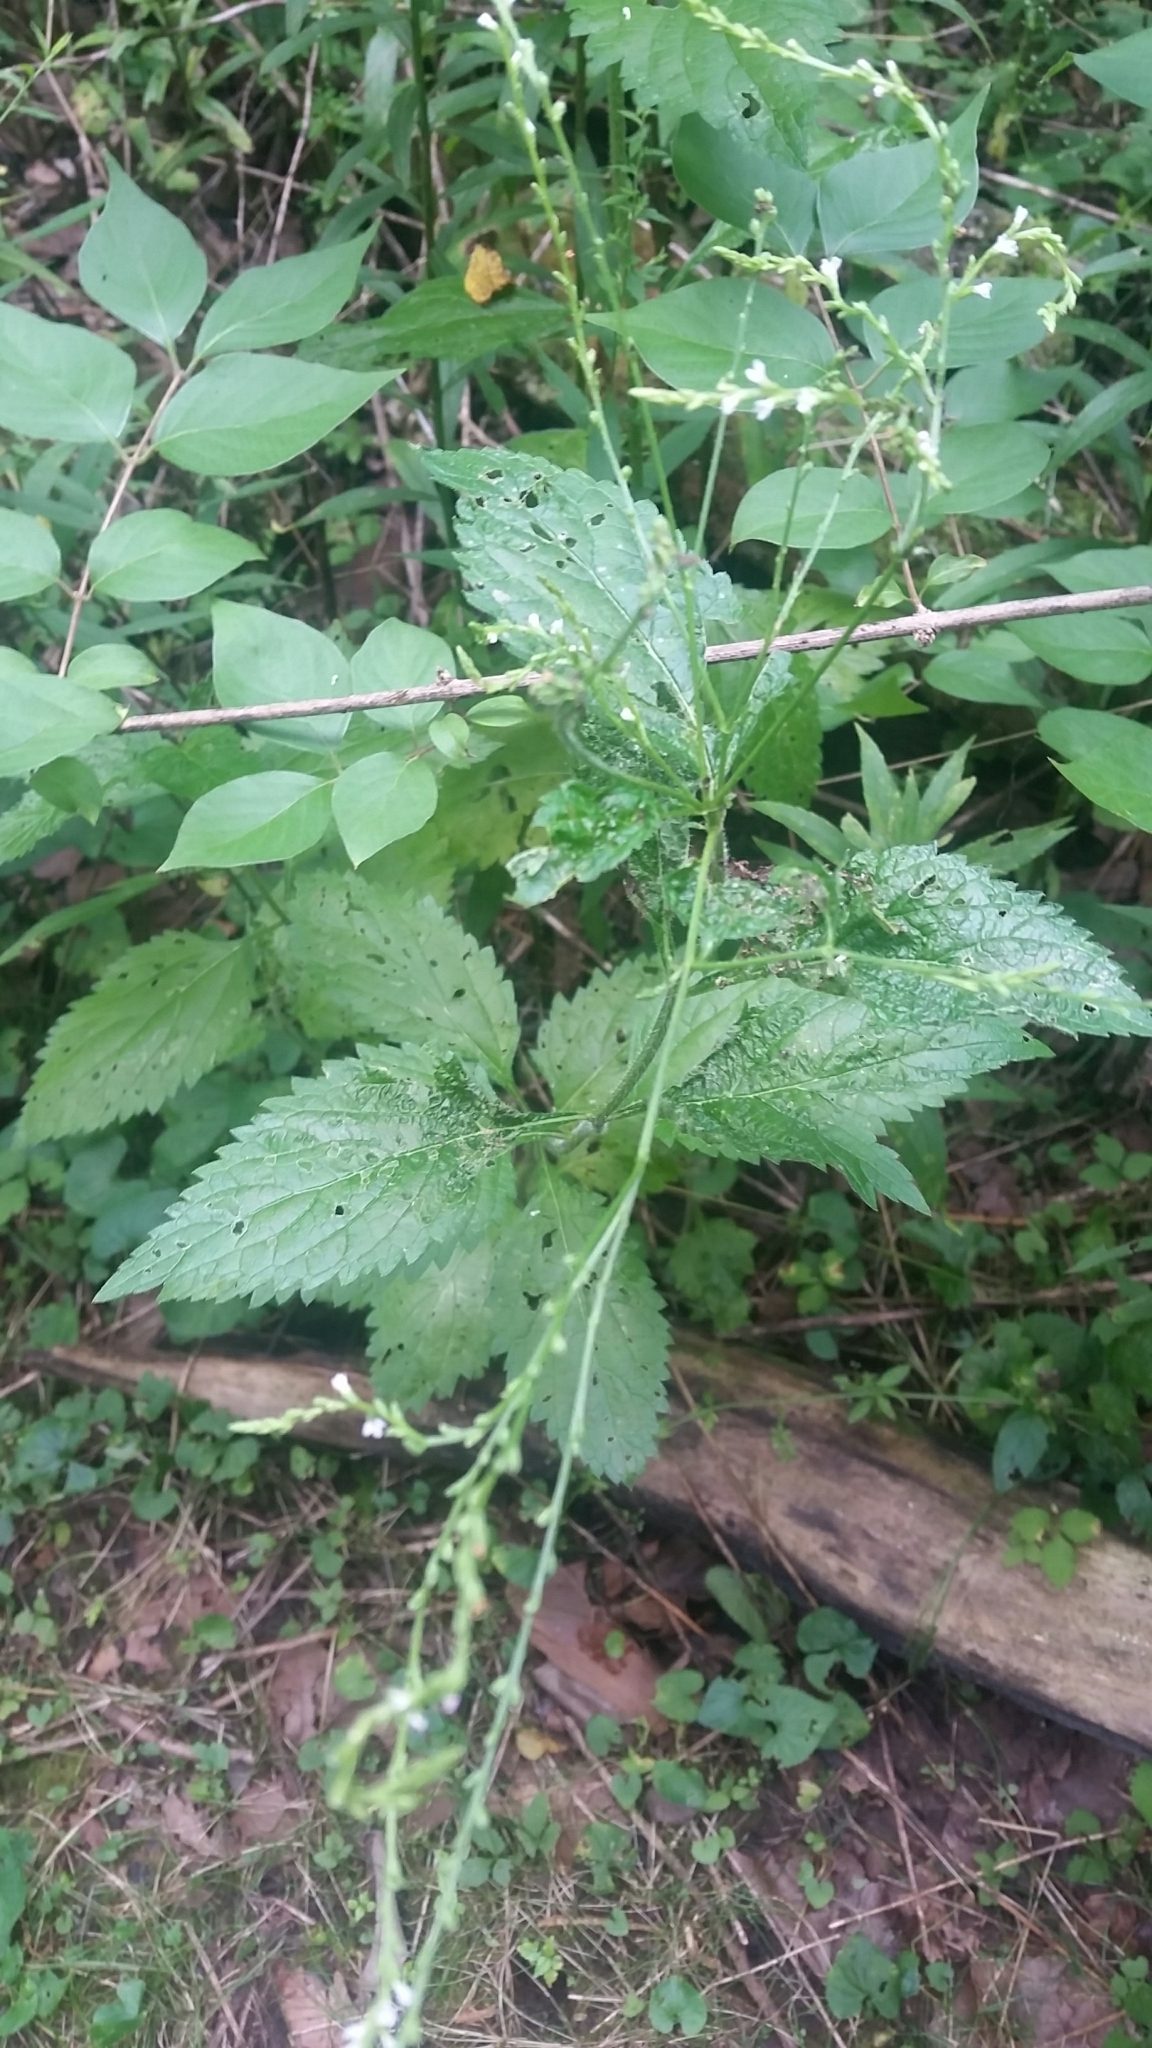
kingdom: Plantae
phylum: Tracheophyta
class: Magnoliopsida
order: Lamiales
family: Verbenaceae
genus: Verbena
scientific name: Verbena urticifolia
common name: Nettle-leaved vervain
